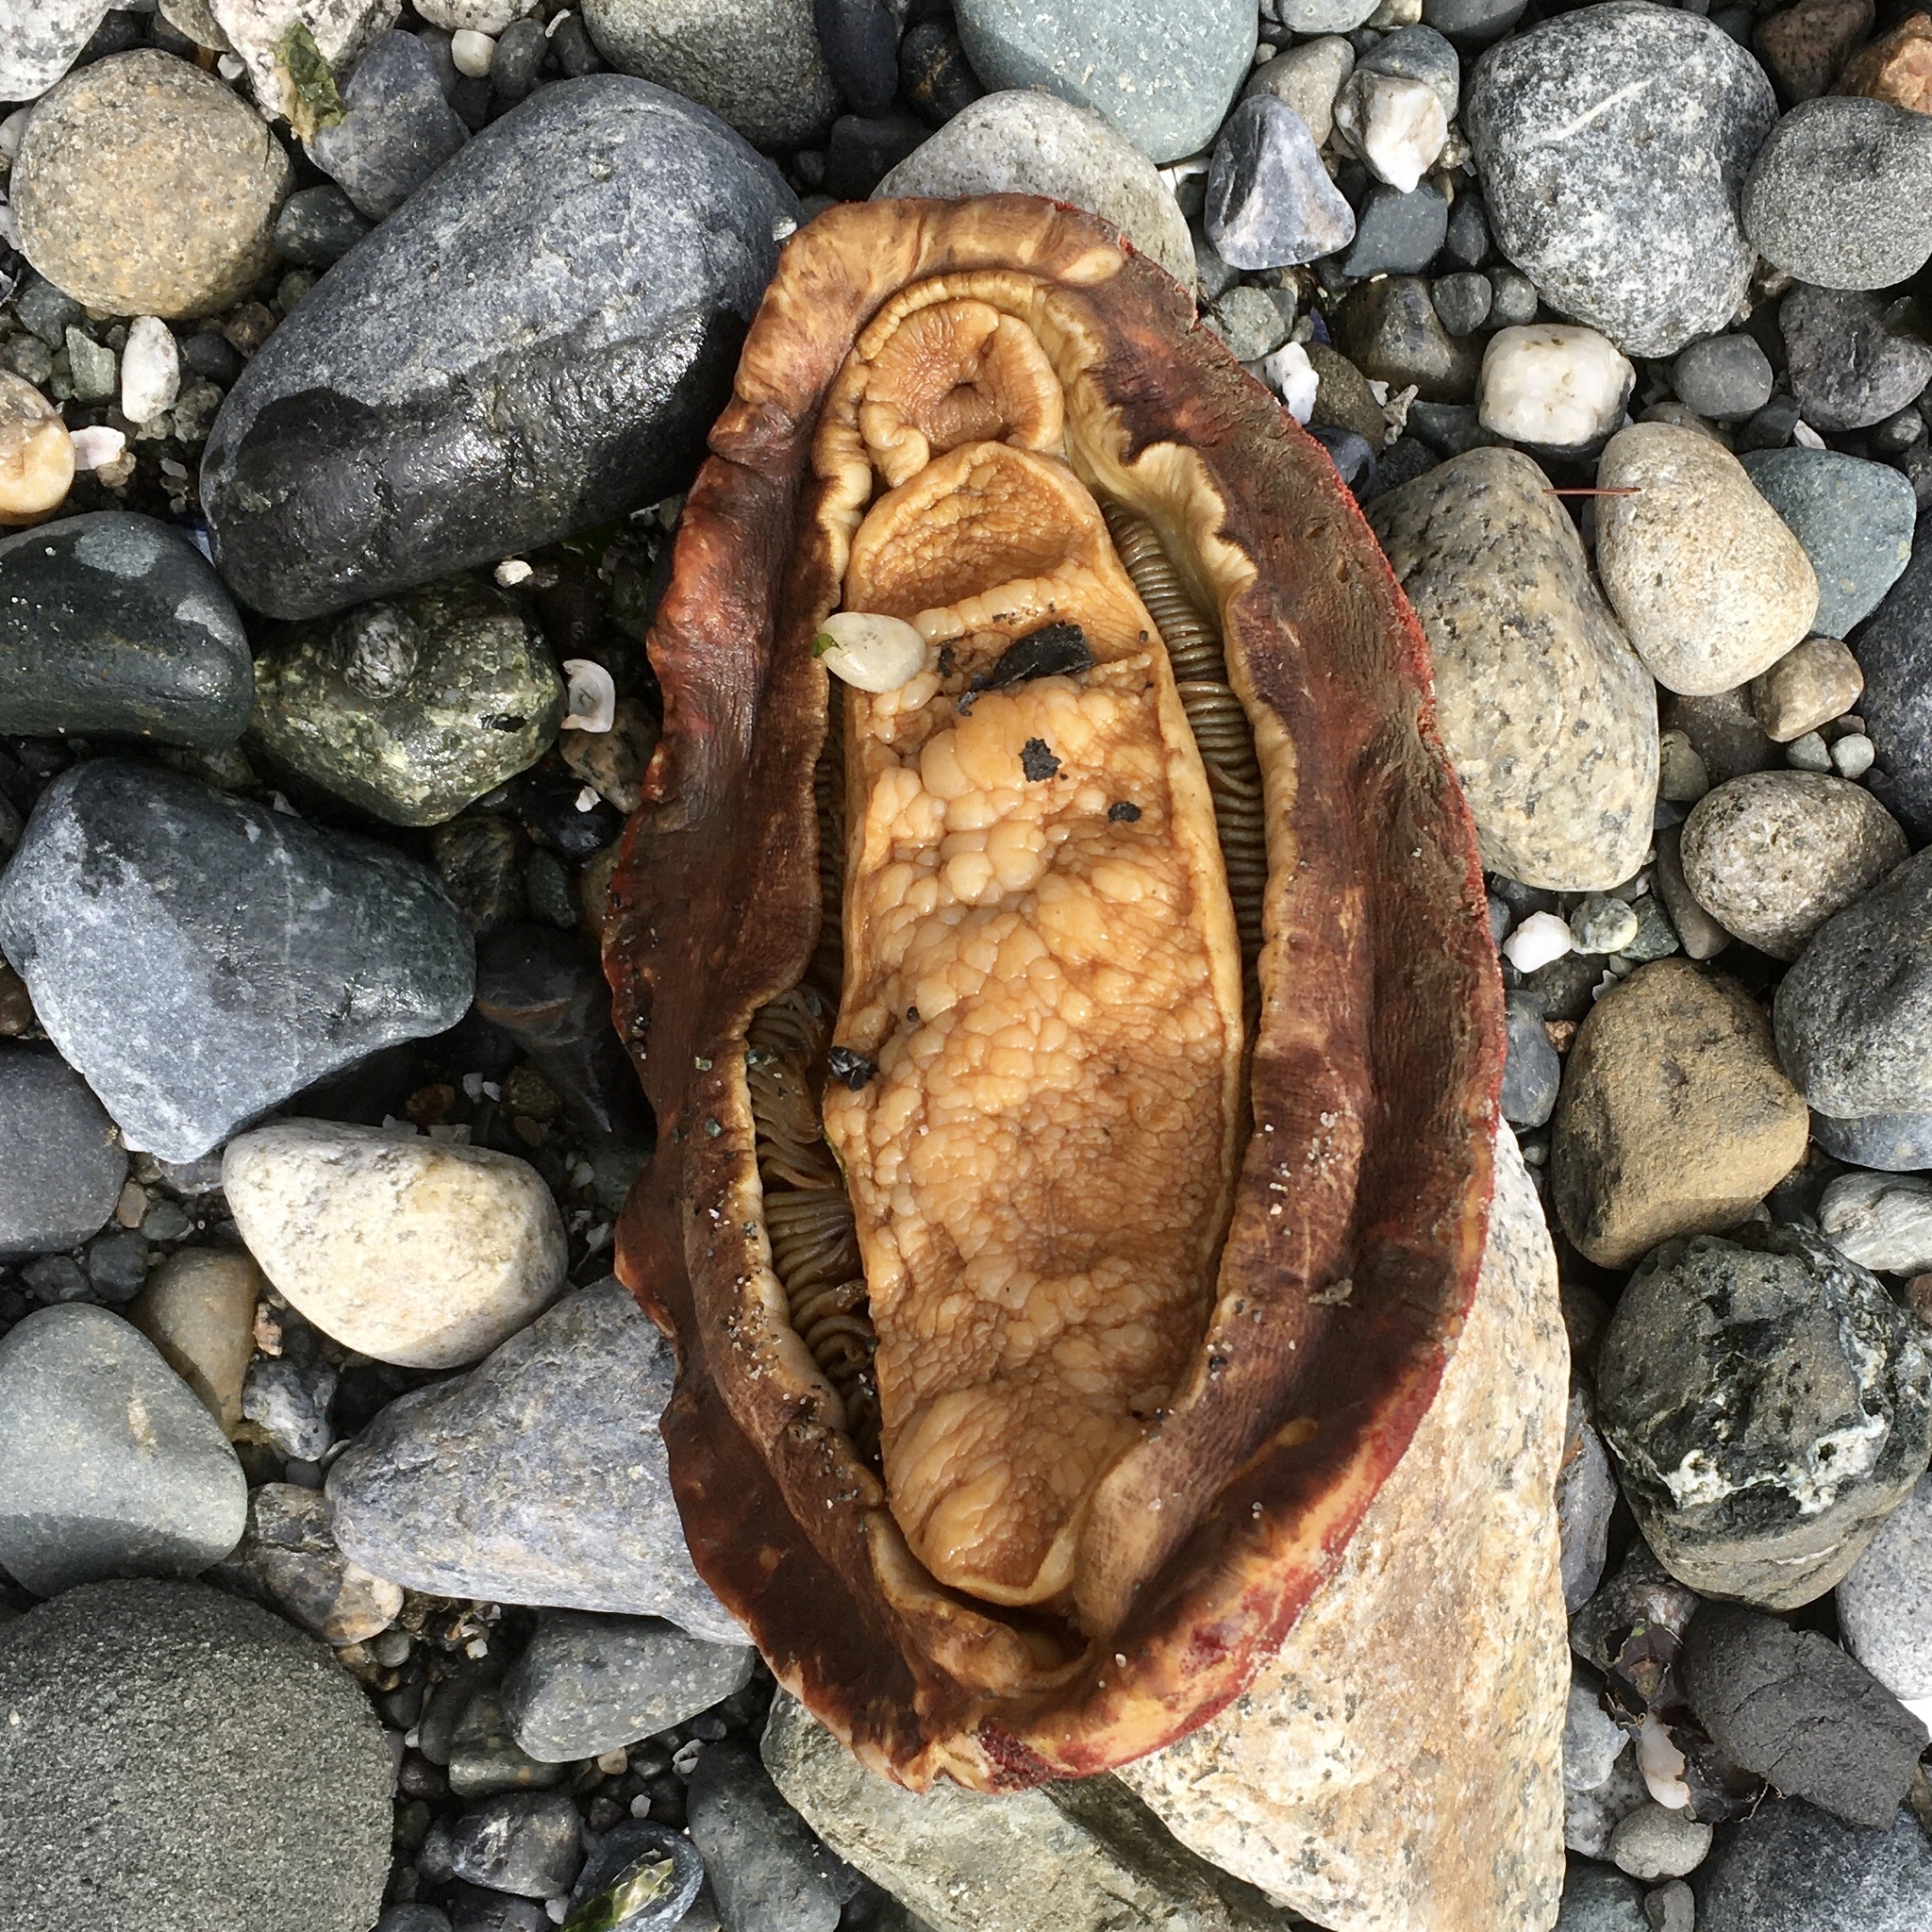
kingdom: Animalia
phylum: Mollusca
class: Polyplacophora
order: Chitonida
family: Acanthochitonidae
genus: Cryptochiton
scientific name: Cryptochiton stelleri
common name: Giant pacific chiton
